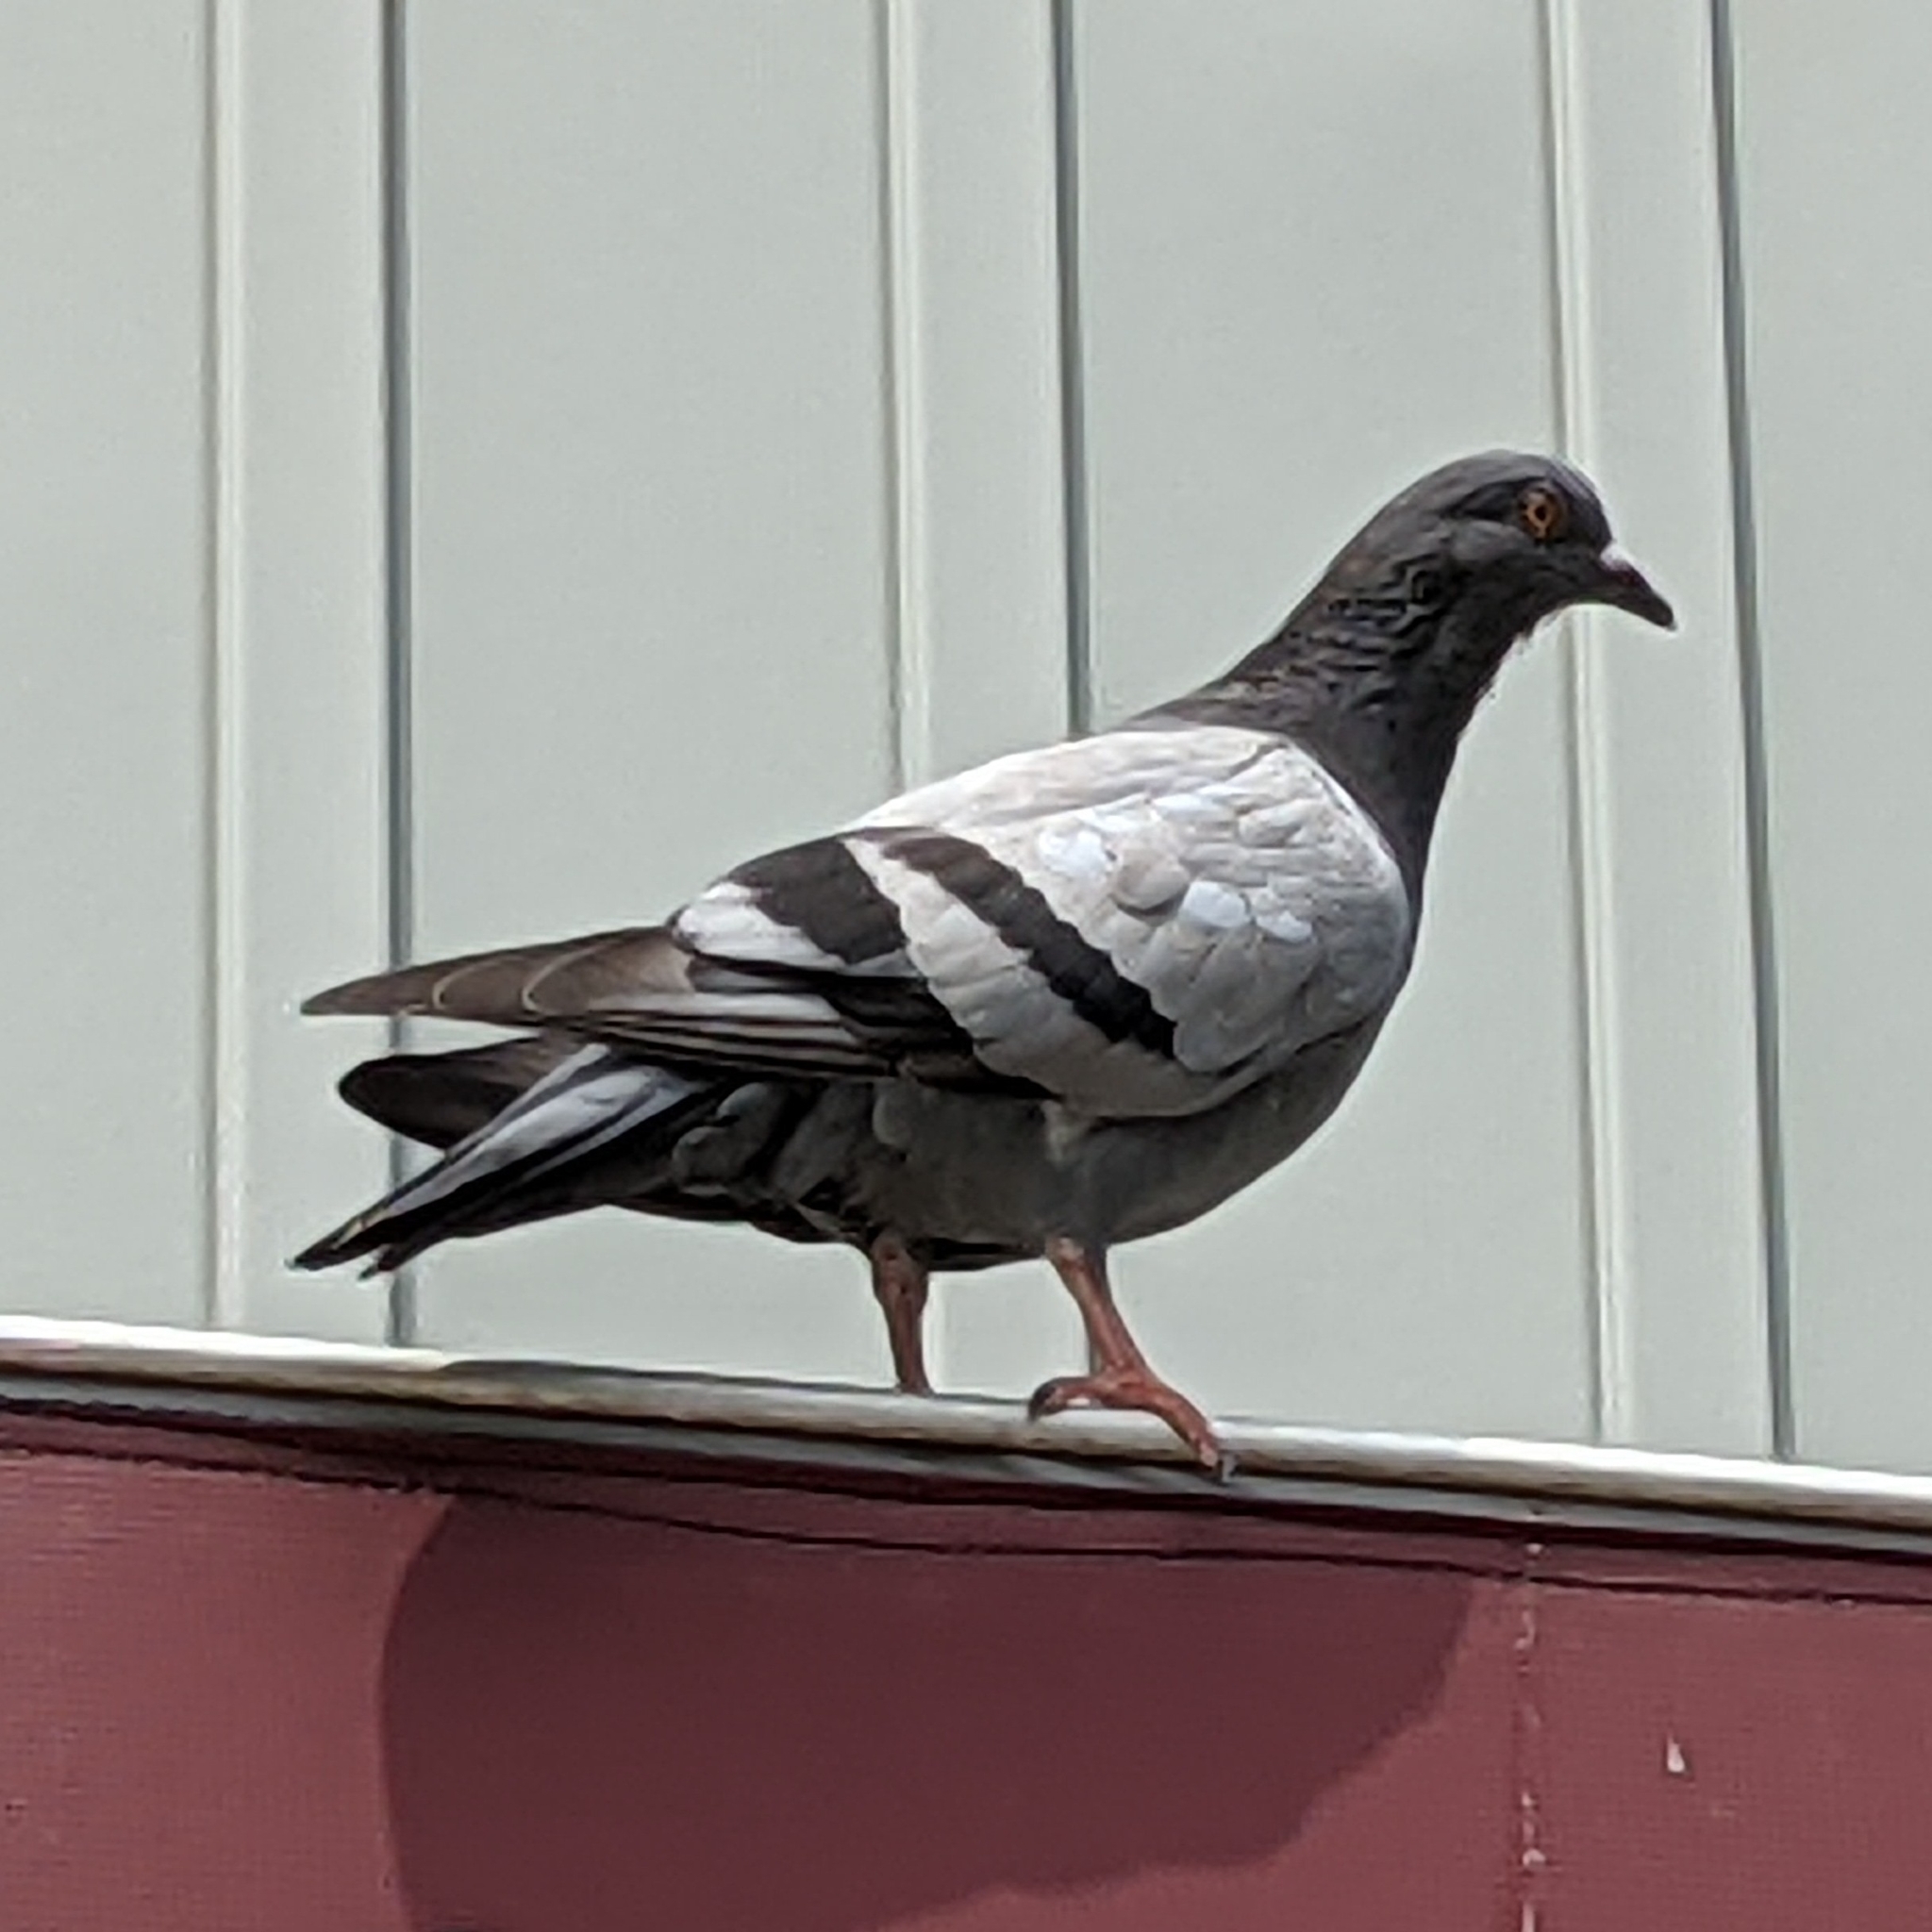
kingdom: Animalia
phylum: Chordata
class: Aves
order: Columbiformes
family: Columbidae
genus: Columba
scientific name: Columba livia
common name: Rock pigeon
